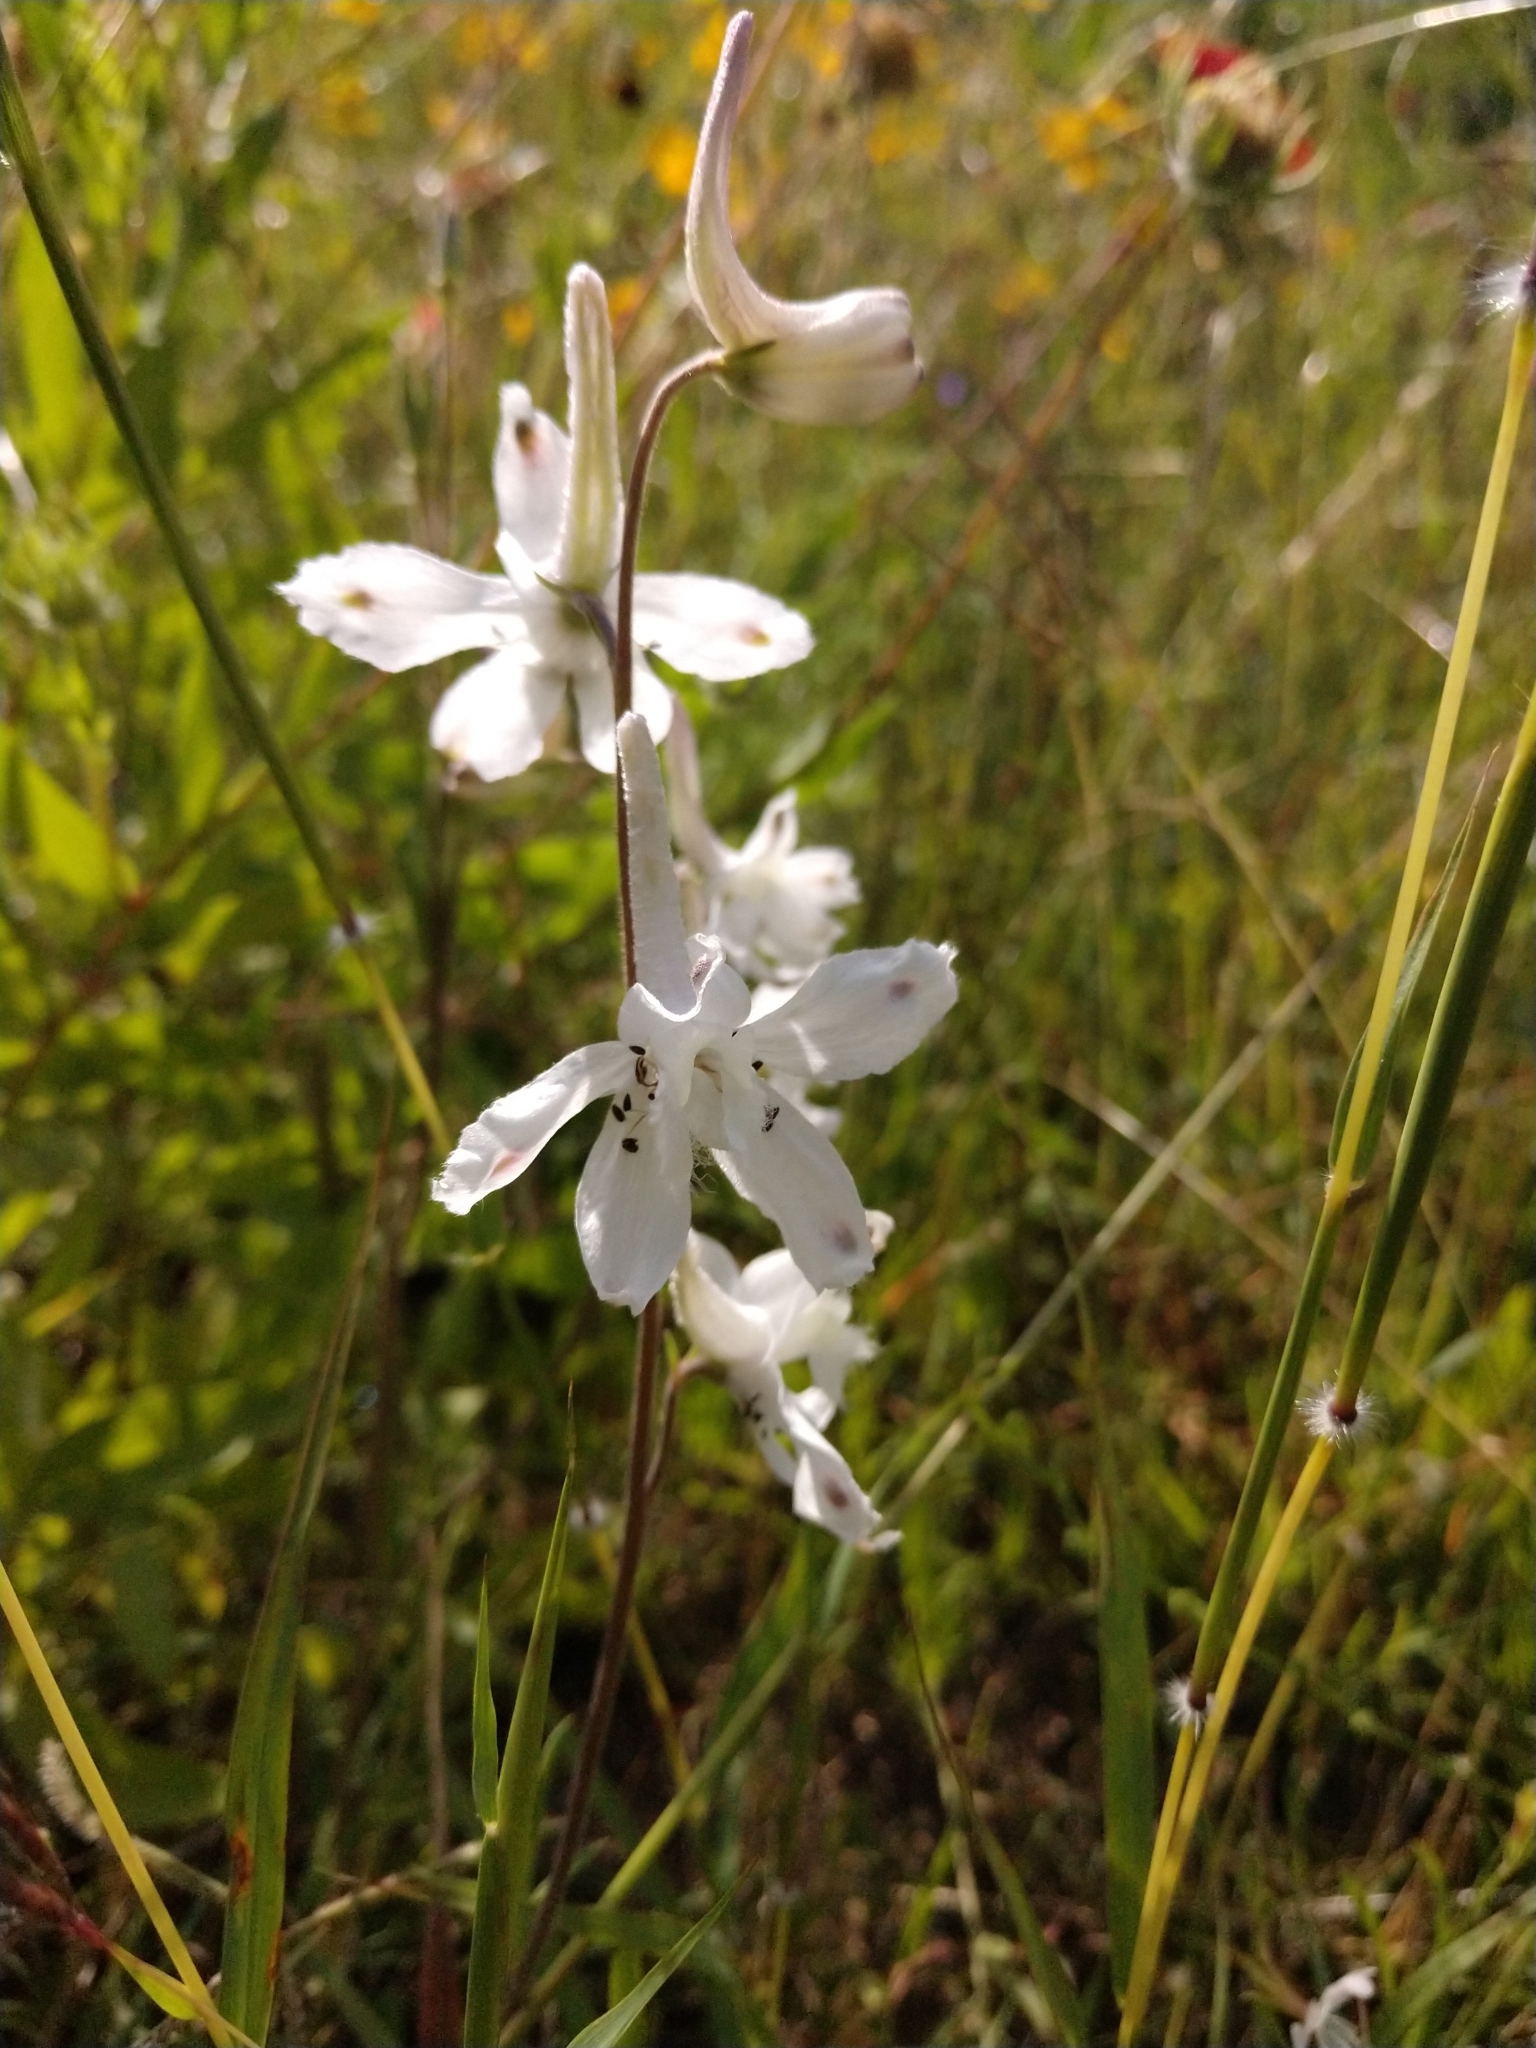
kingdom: Plantae
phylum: Tracheophyta
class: Magnoliopsida
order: Ranunculales
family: Ranunculaceae
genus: Delphinium
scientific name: Delphinium carolinianum
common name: Carolina larkspur
